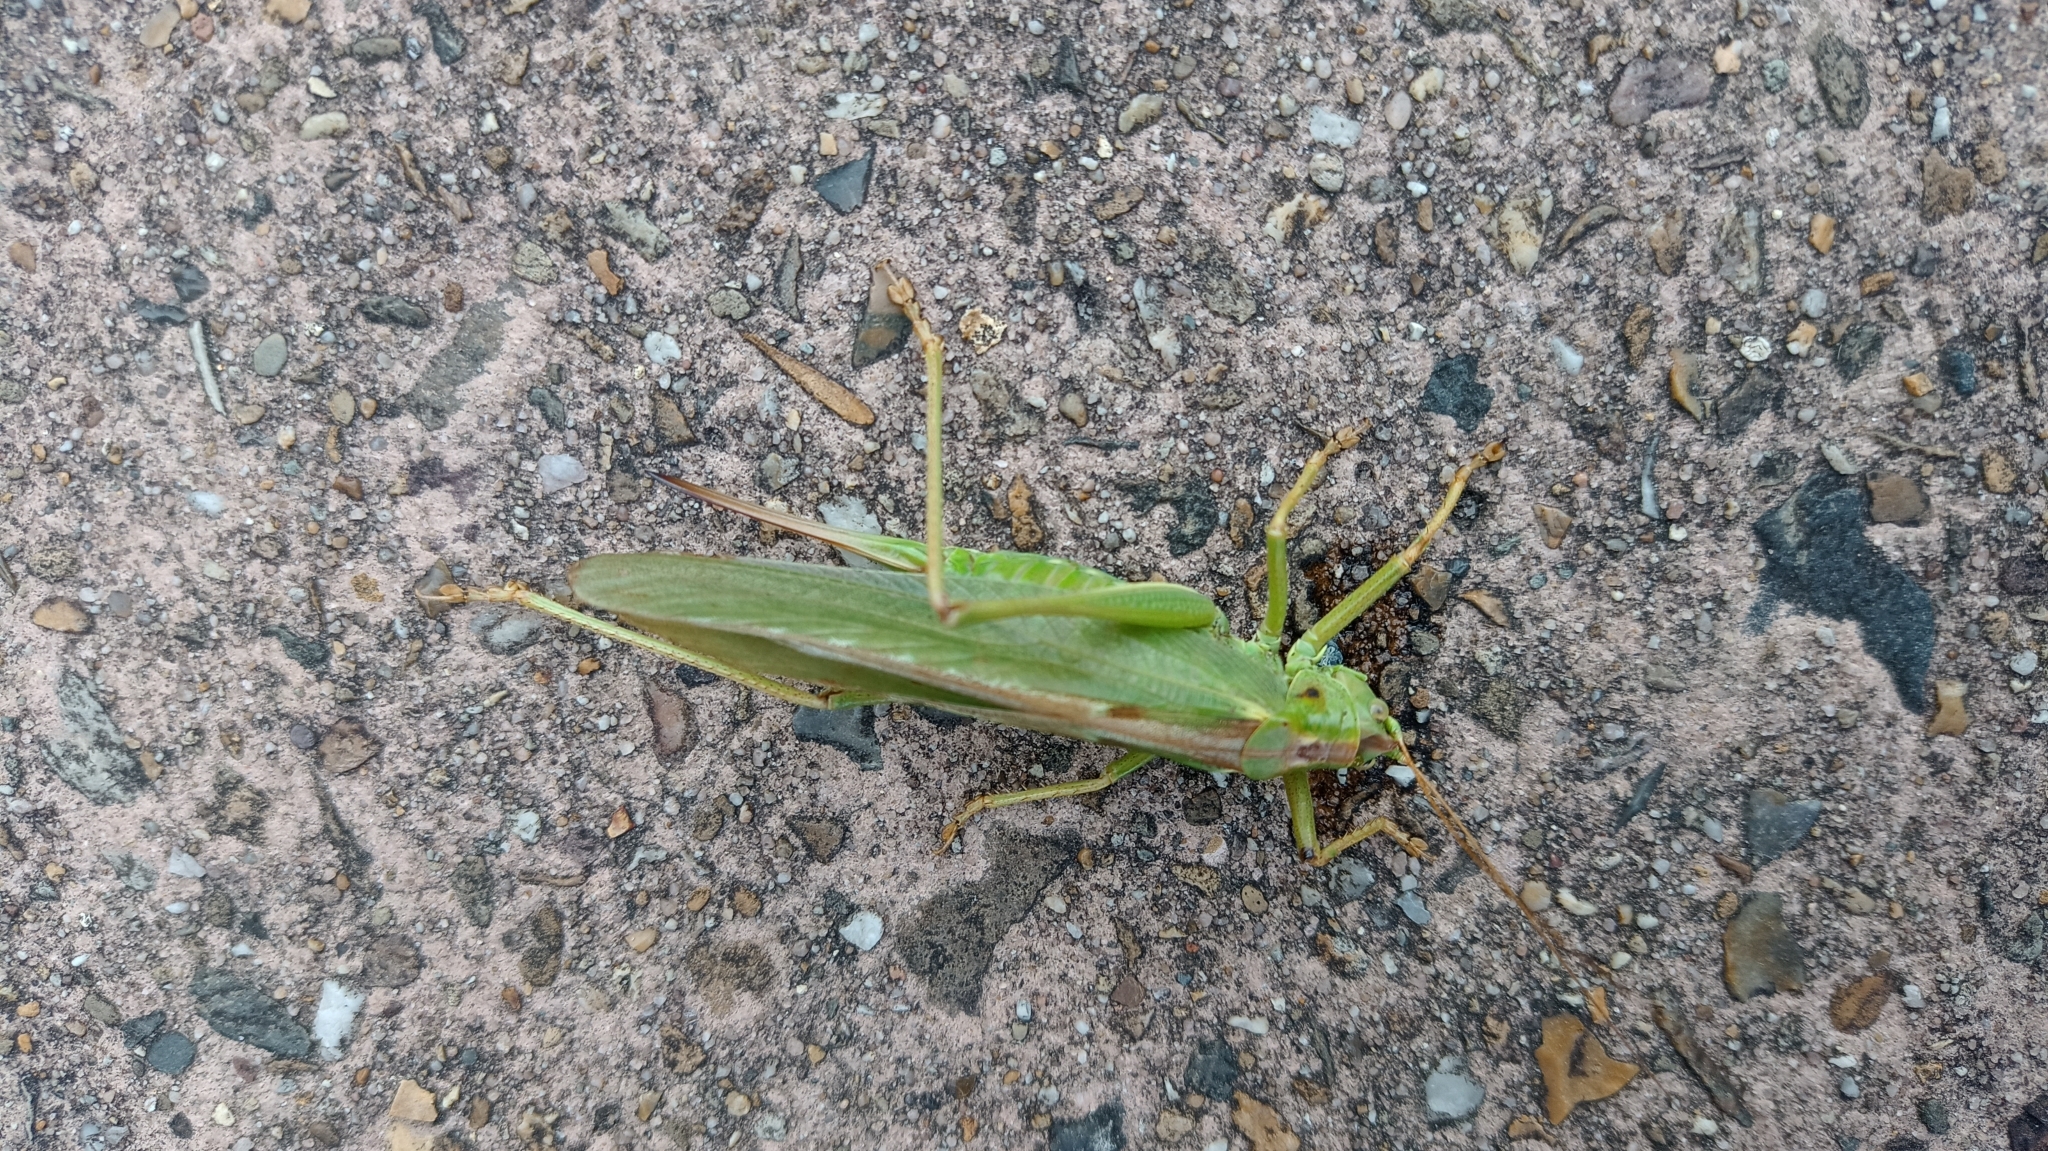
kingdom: Animalia
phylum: Arthropoda
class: Insecta
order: Orthoptera
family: Tettigoniidae
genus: Tettigonia
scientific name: Tettigonia viridissima
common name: Great green bush-cricket
